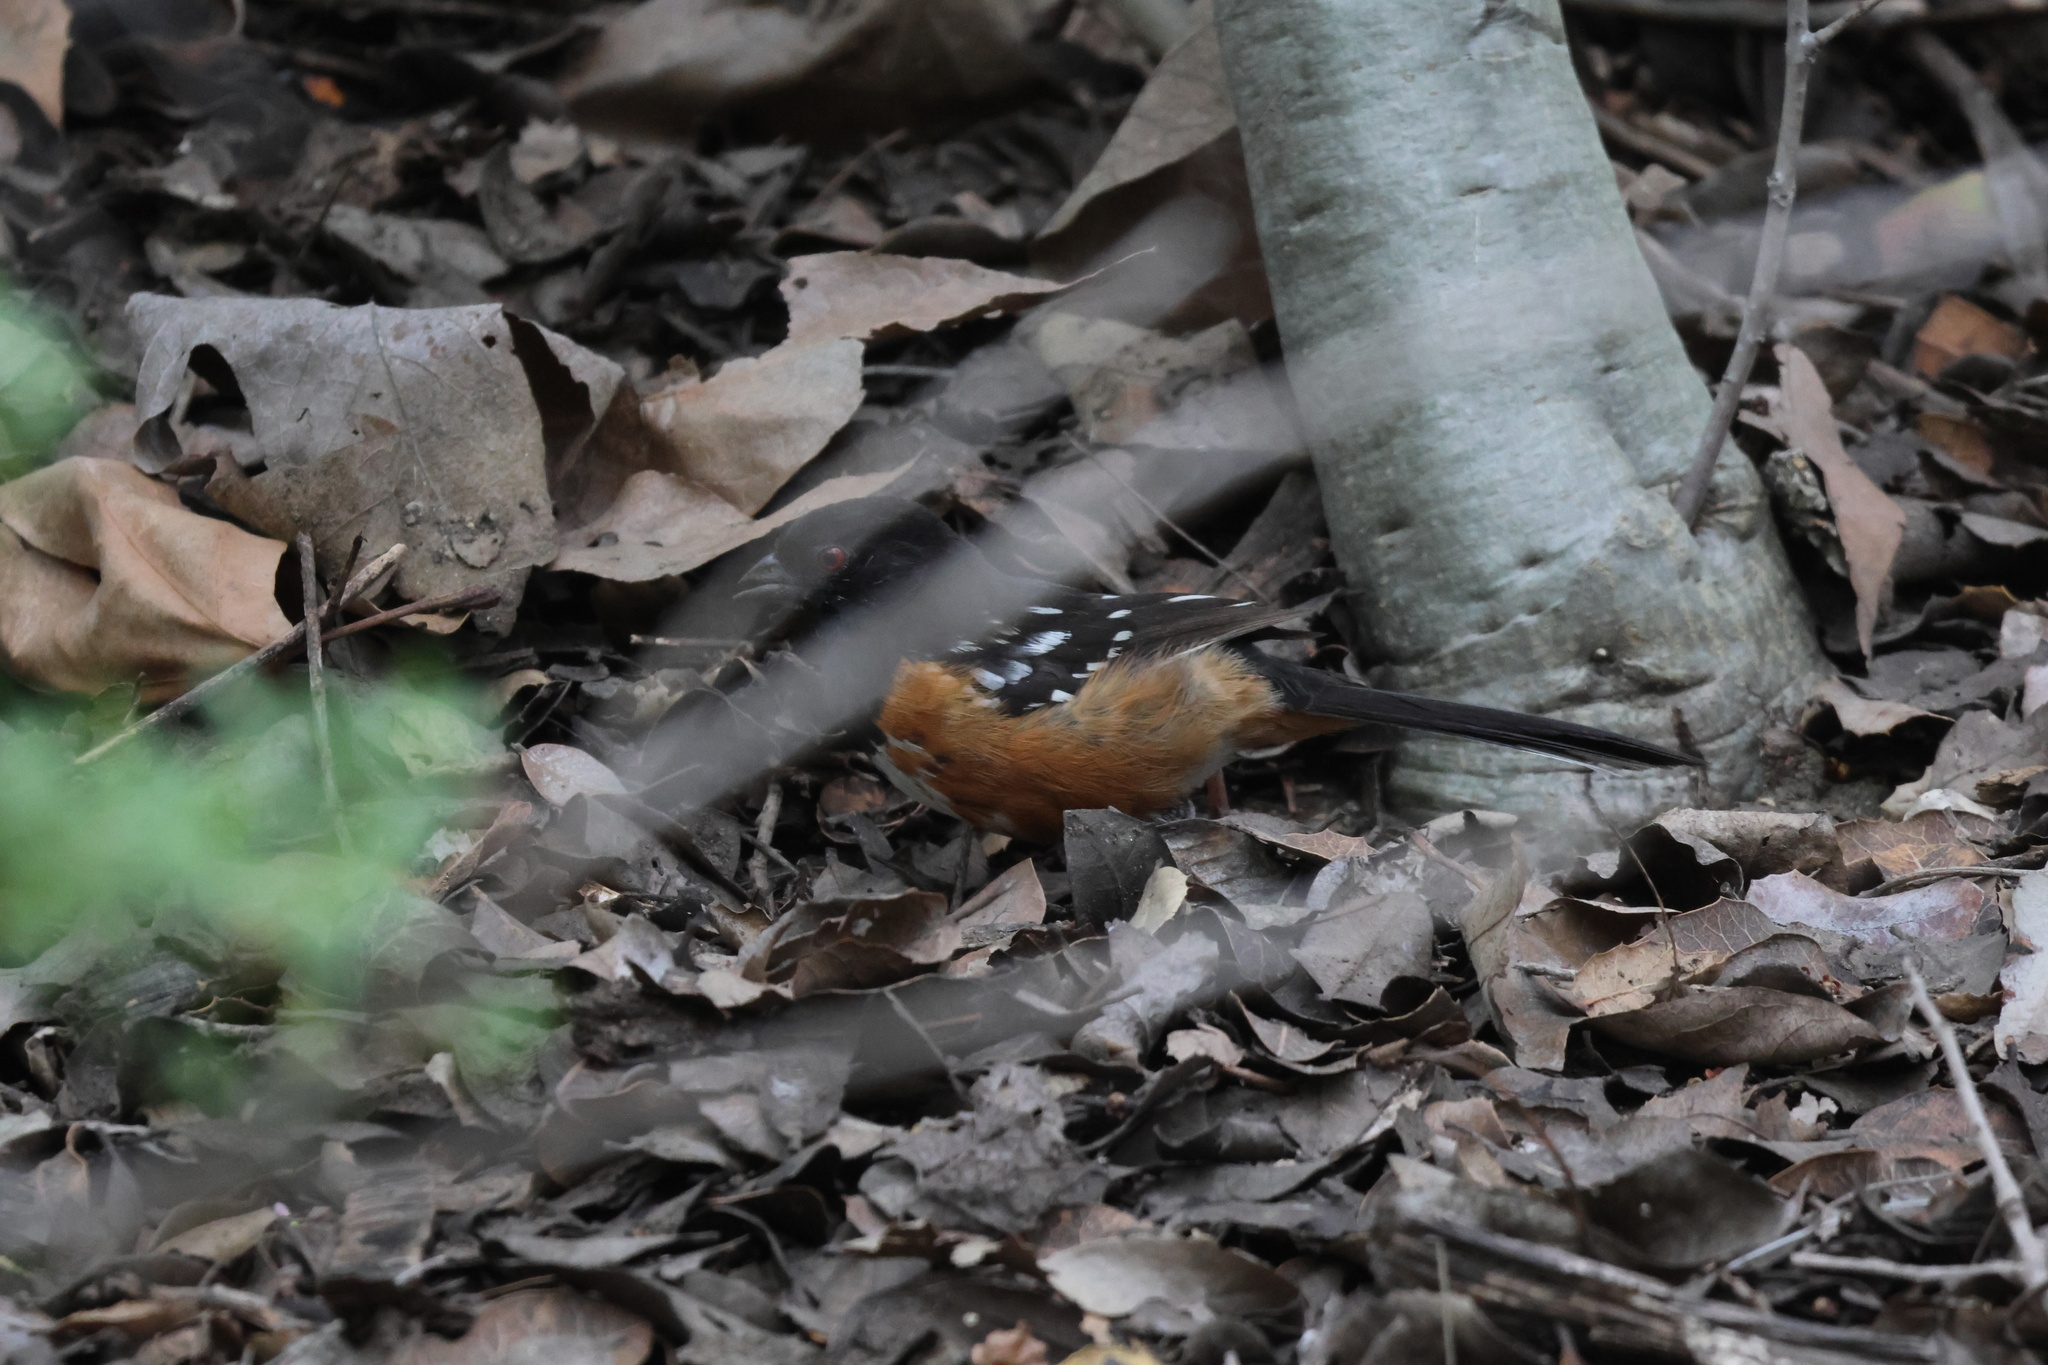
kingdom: Animalia
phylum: Chordata
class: Aves
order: Passeriformes
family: Passerellidae
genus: Pipilo
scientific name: Pipilo maculatus
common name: Spotted towhee
